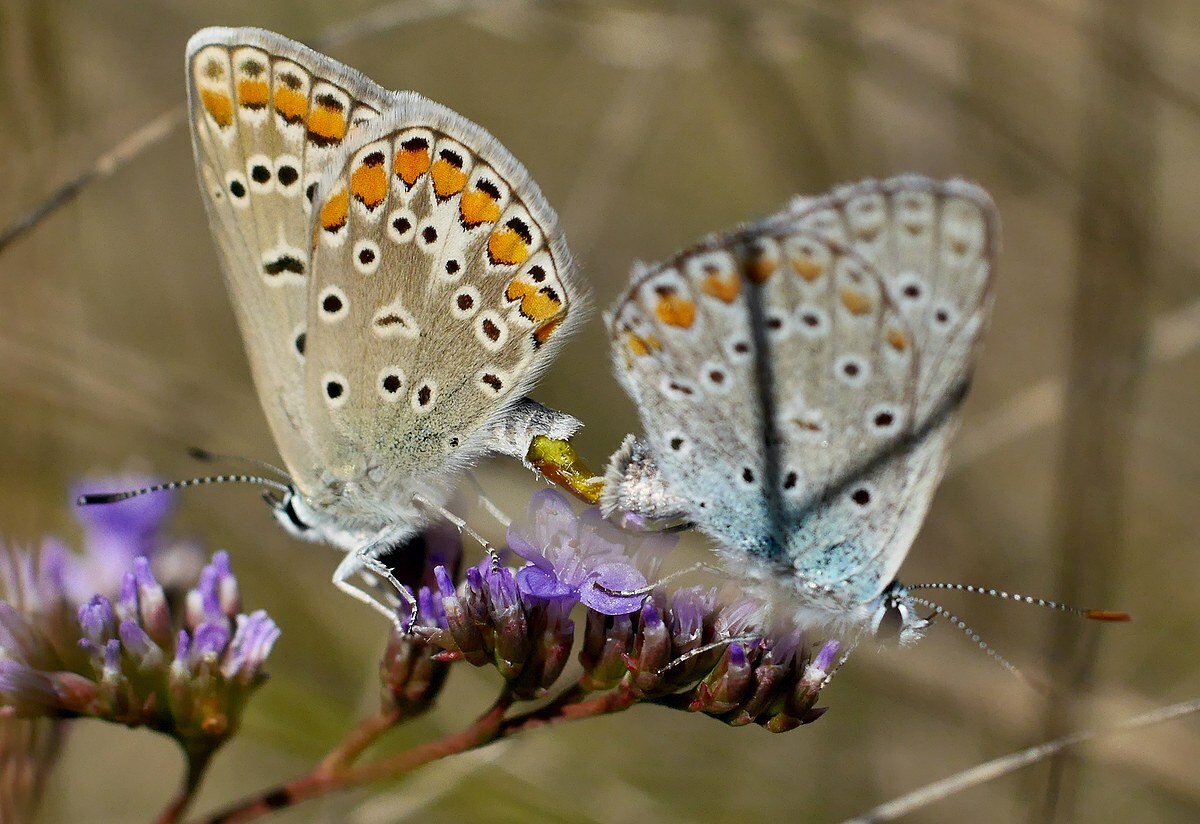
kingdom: Animalia
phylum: Arthropoda
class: Insecta
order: Lepidoptera
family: Lycaenidae
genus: Polyommatus
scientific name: Polyommatus icarus
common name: Common blue
